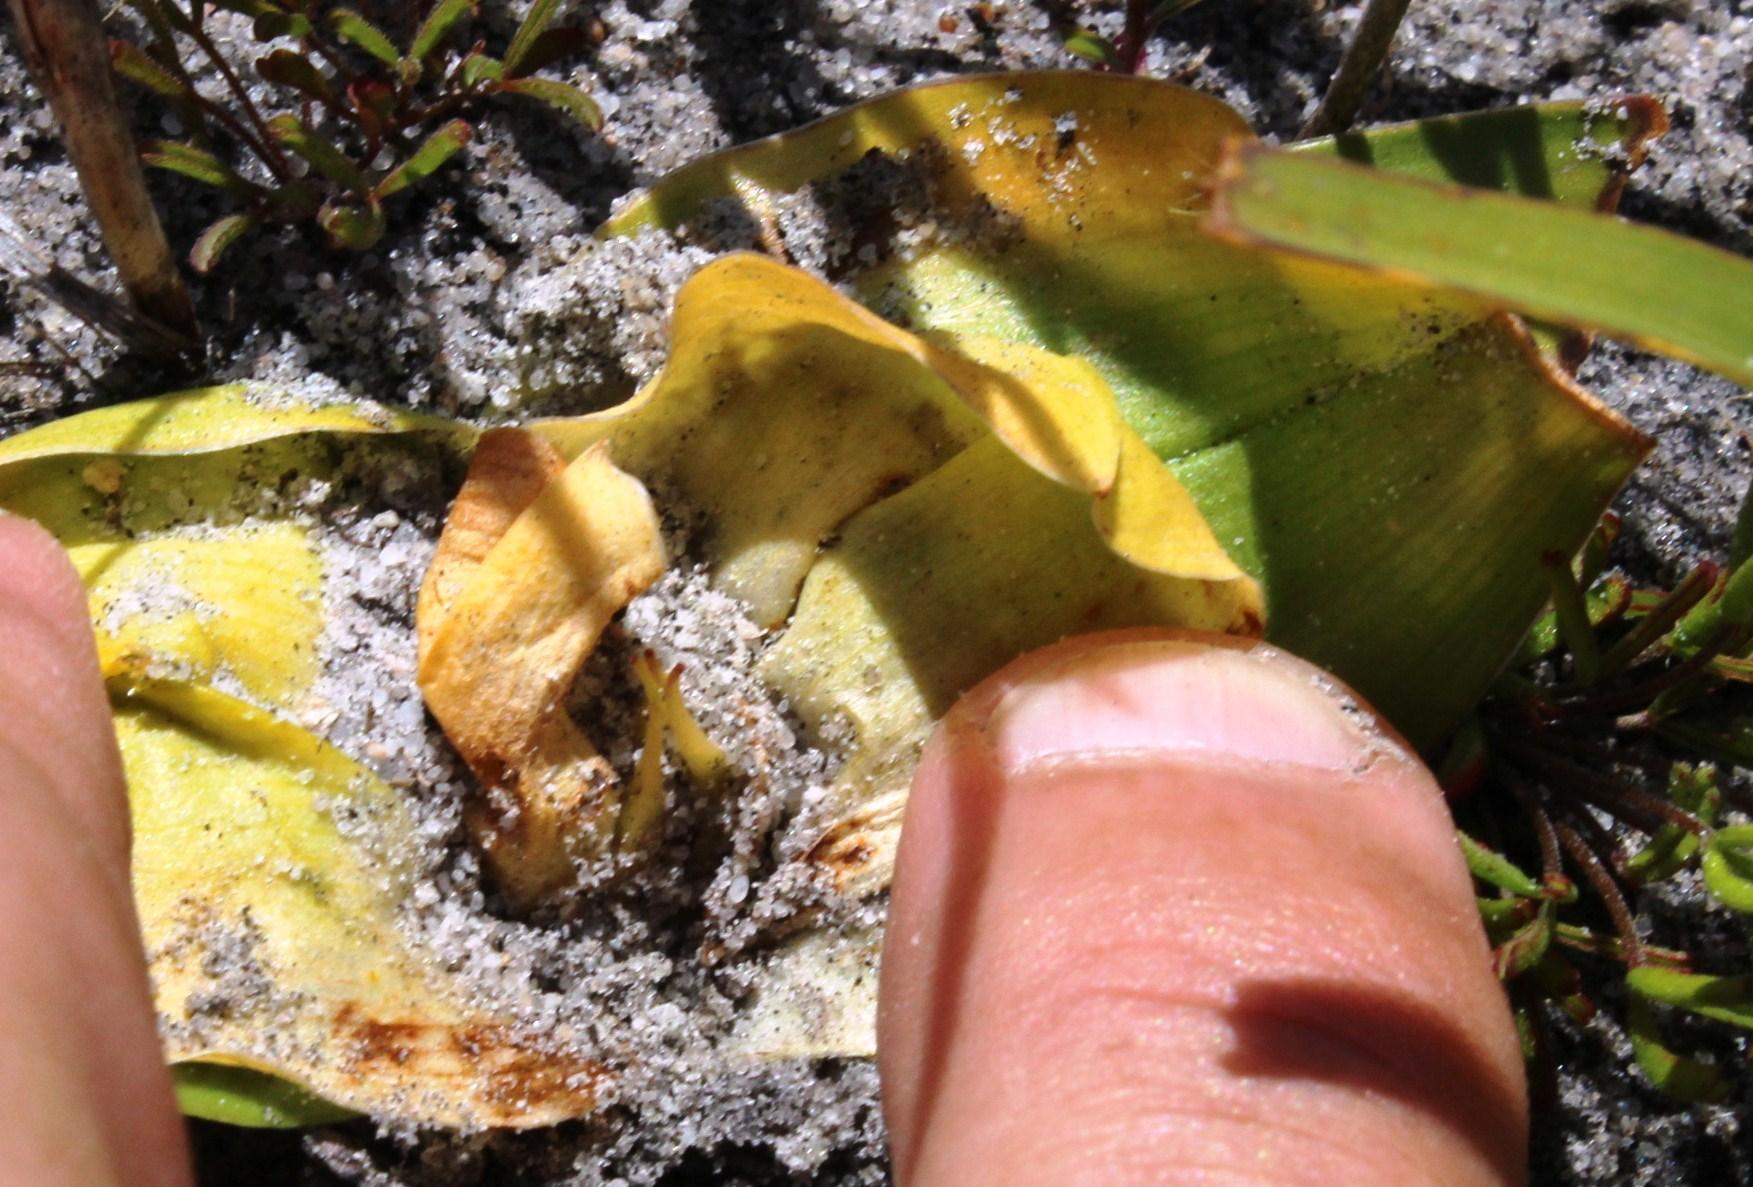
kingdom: Plantae
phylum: Tracheophyta
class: Liliopsida
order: Liliales
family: Colchicaceae
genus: Colchicum
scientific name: Colchicum eucomoides
